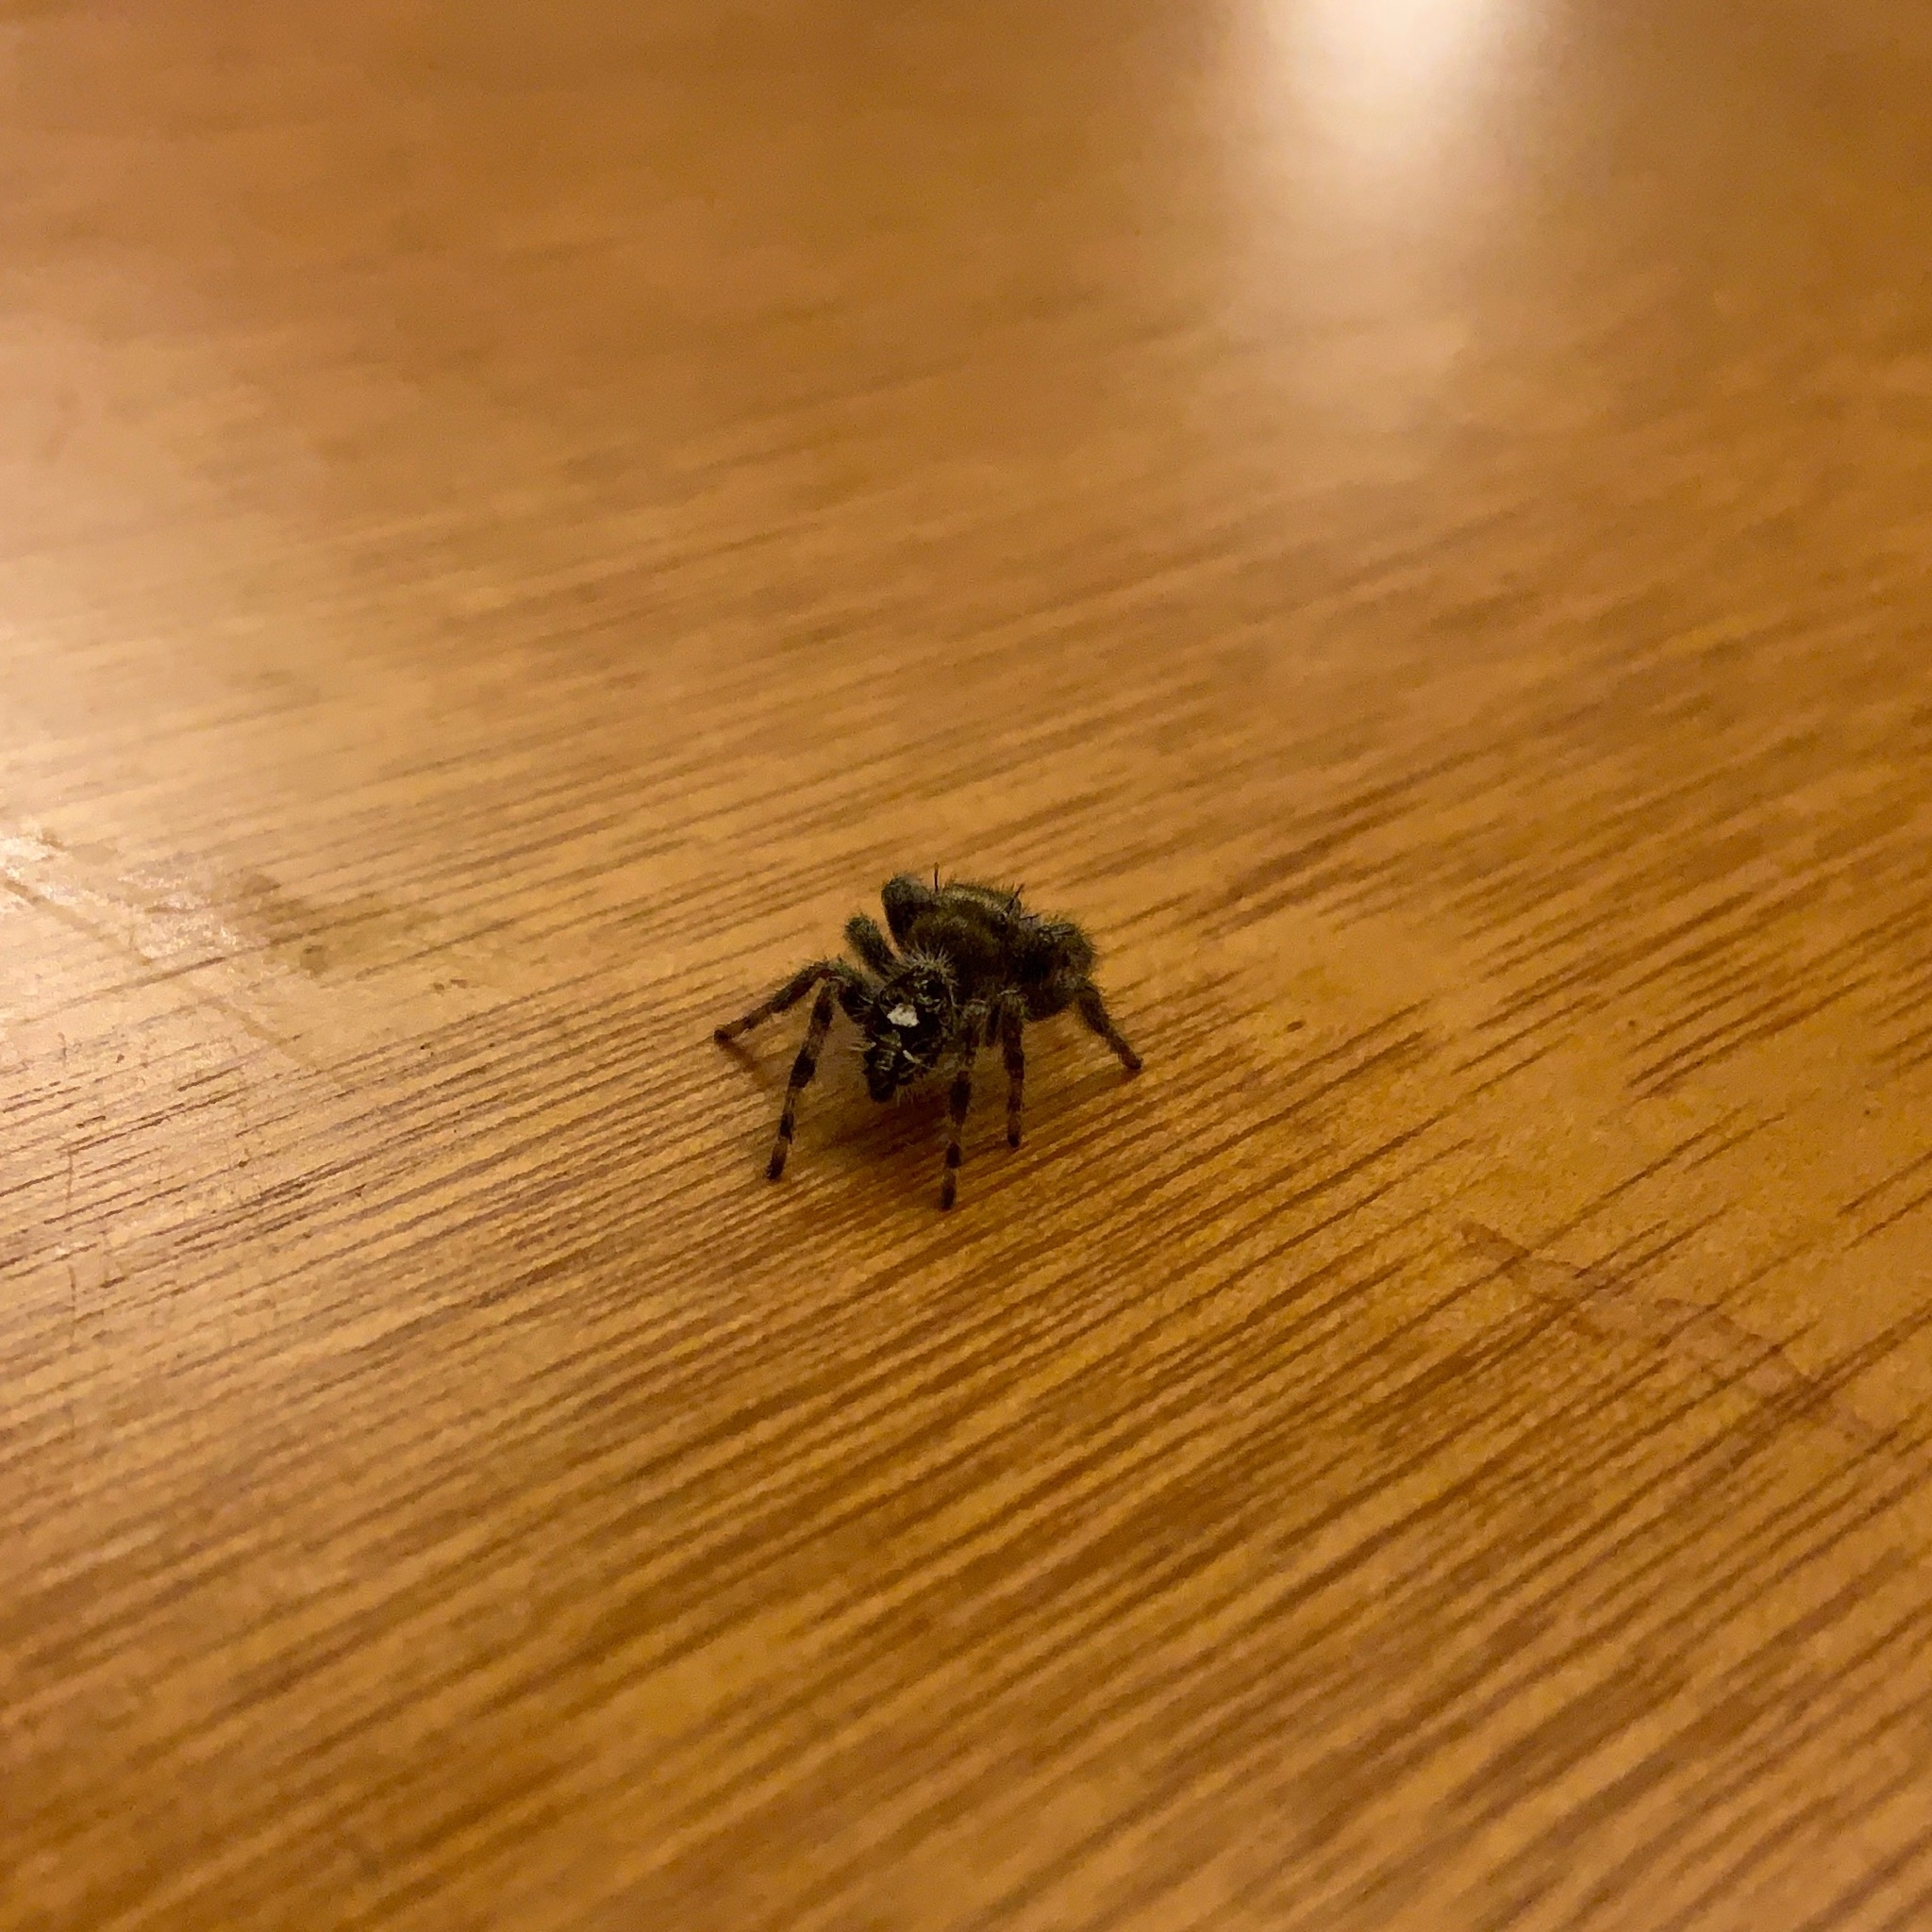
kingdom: Animalia
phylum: Arthropoda
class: Arachnida
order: Araneae
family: Salticidae
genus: Phidippus
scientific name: Phidippus audax
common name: Bold jumper
